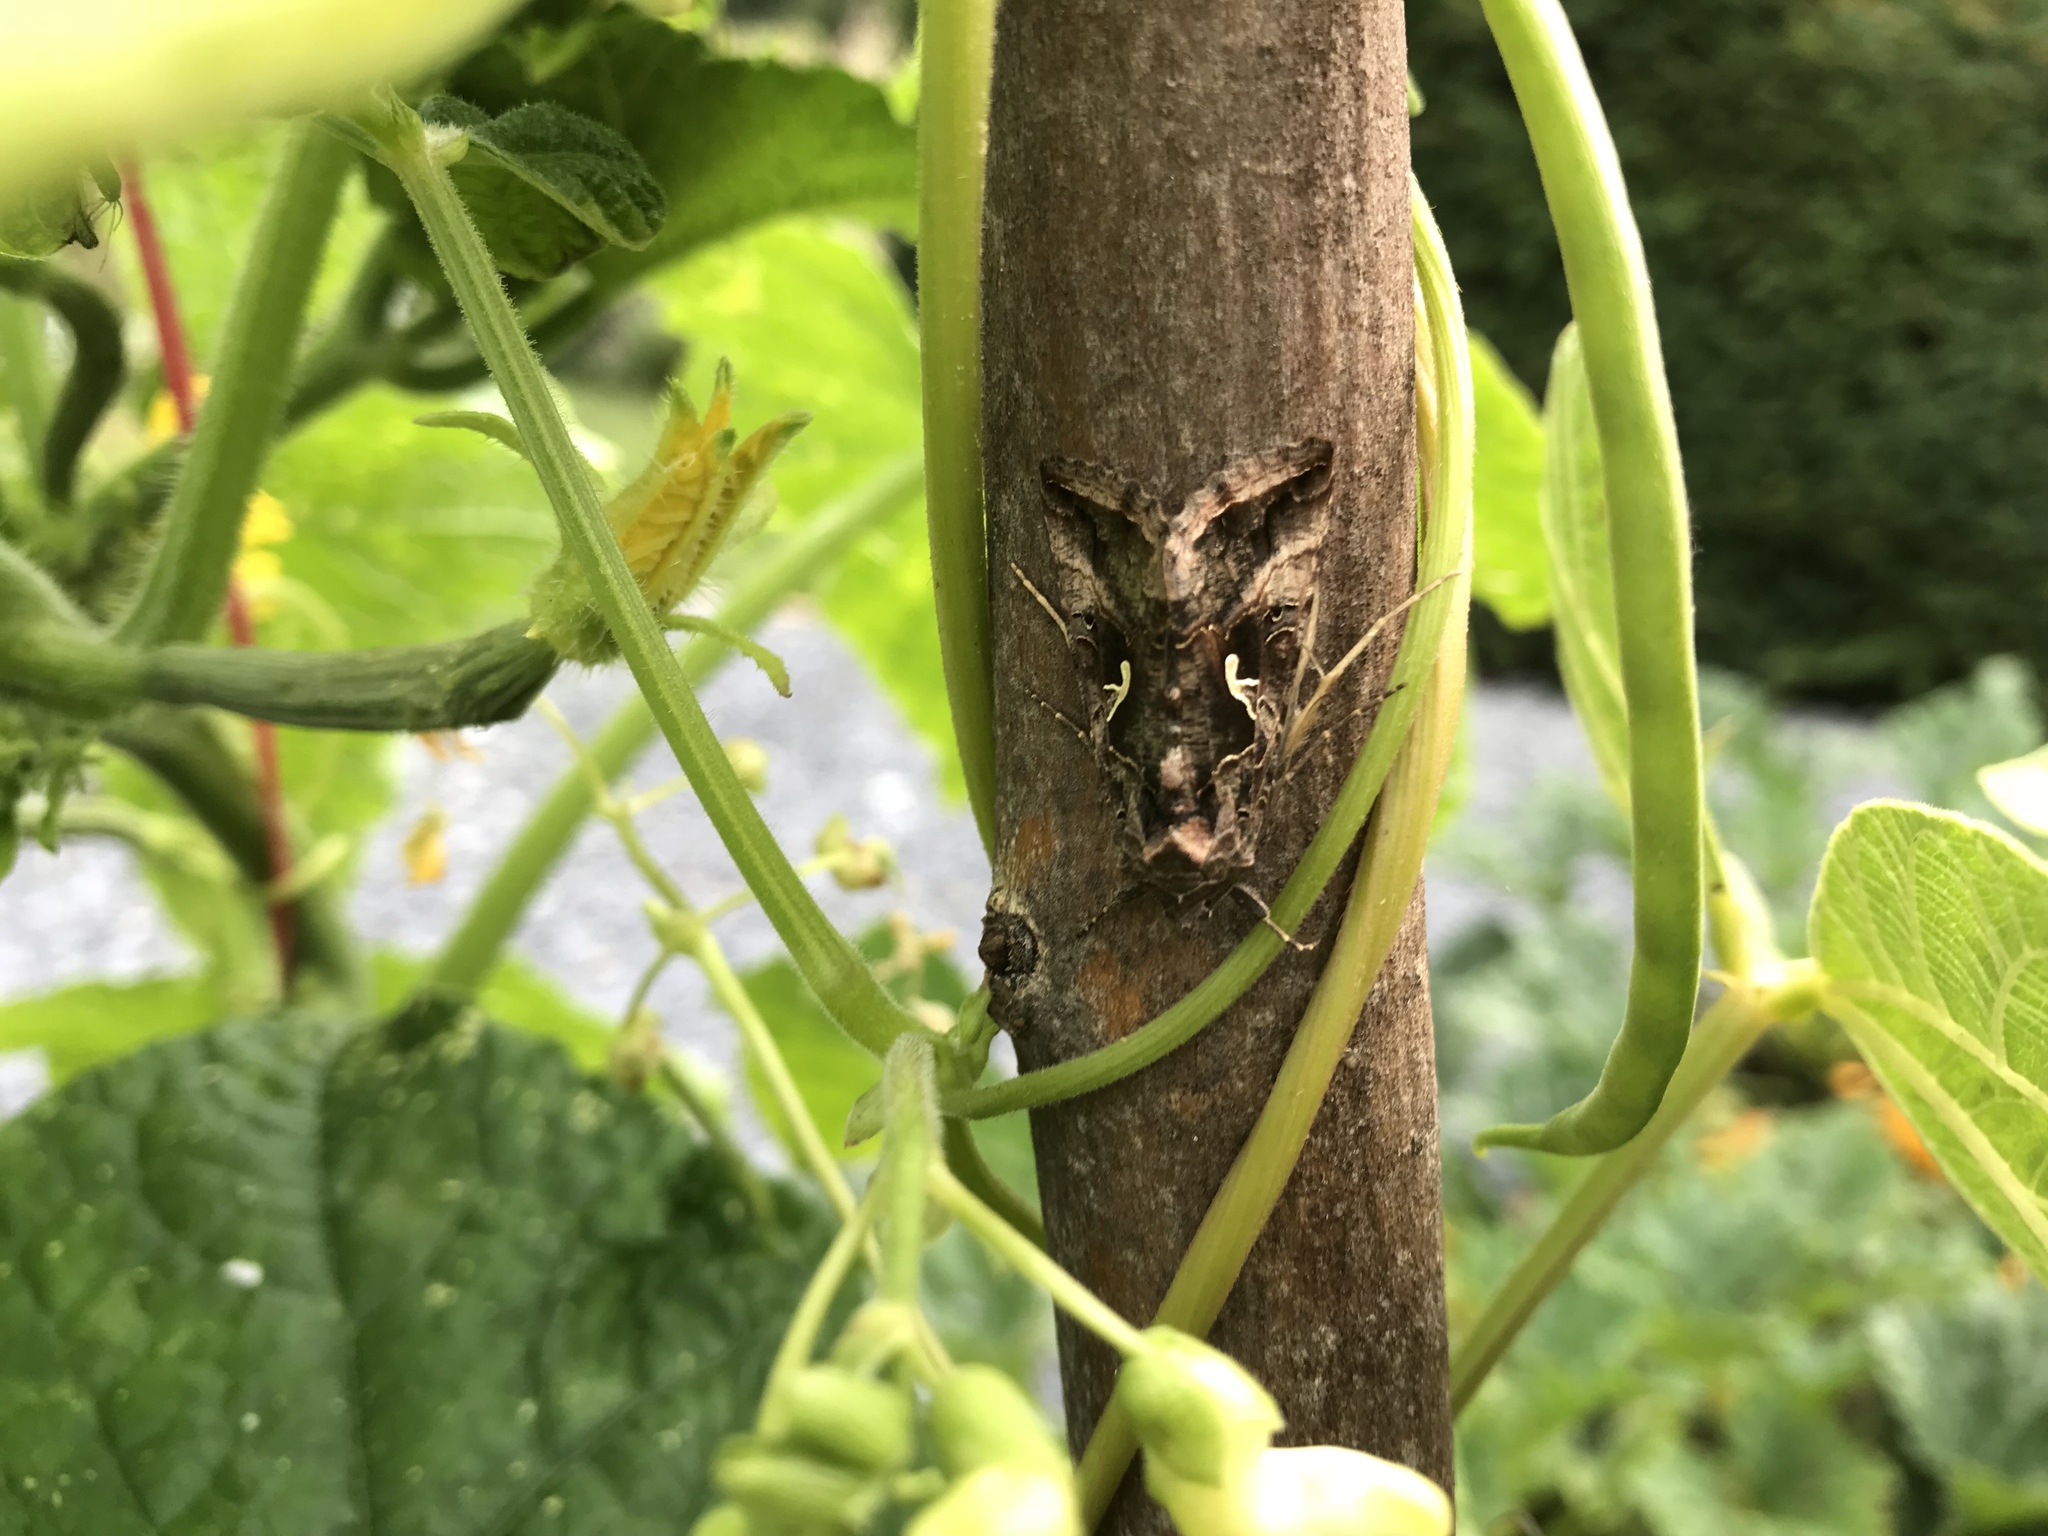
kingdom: Animalia
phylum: Arthropoda
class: Insecta
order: Lepidoptera
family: Noctuidae
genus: Autographa
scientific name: Autographa gamma
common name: Silver y
